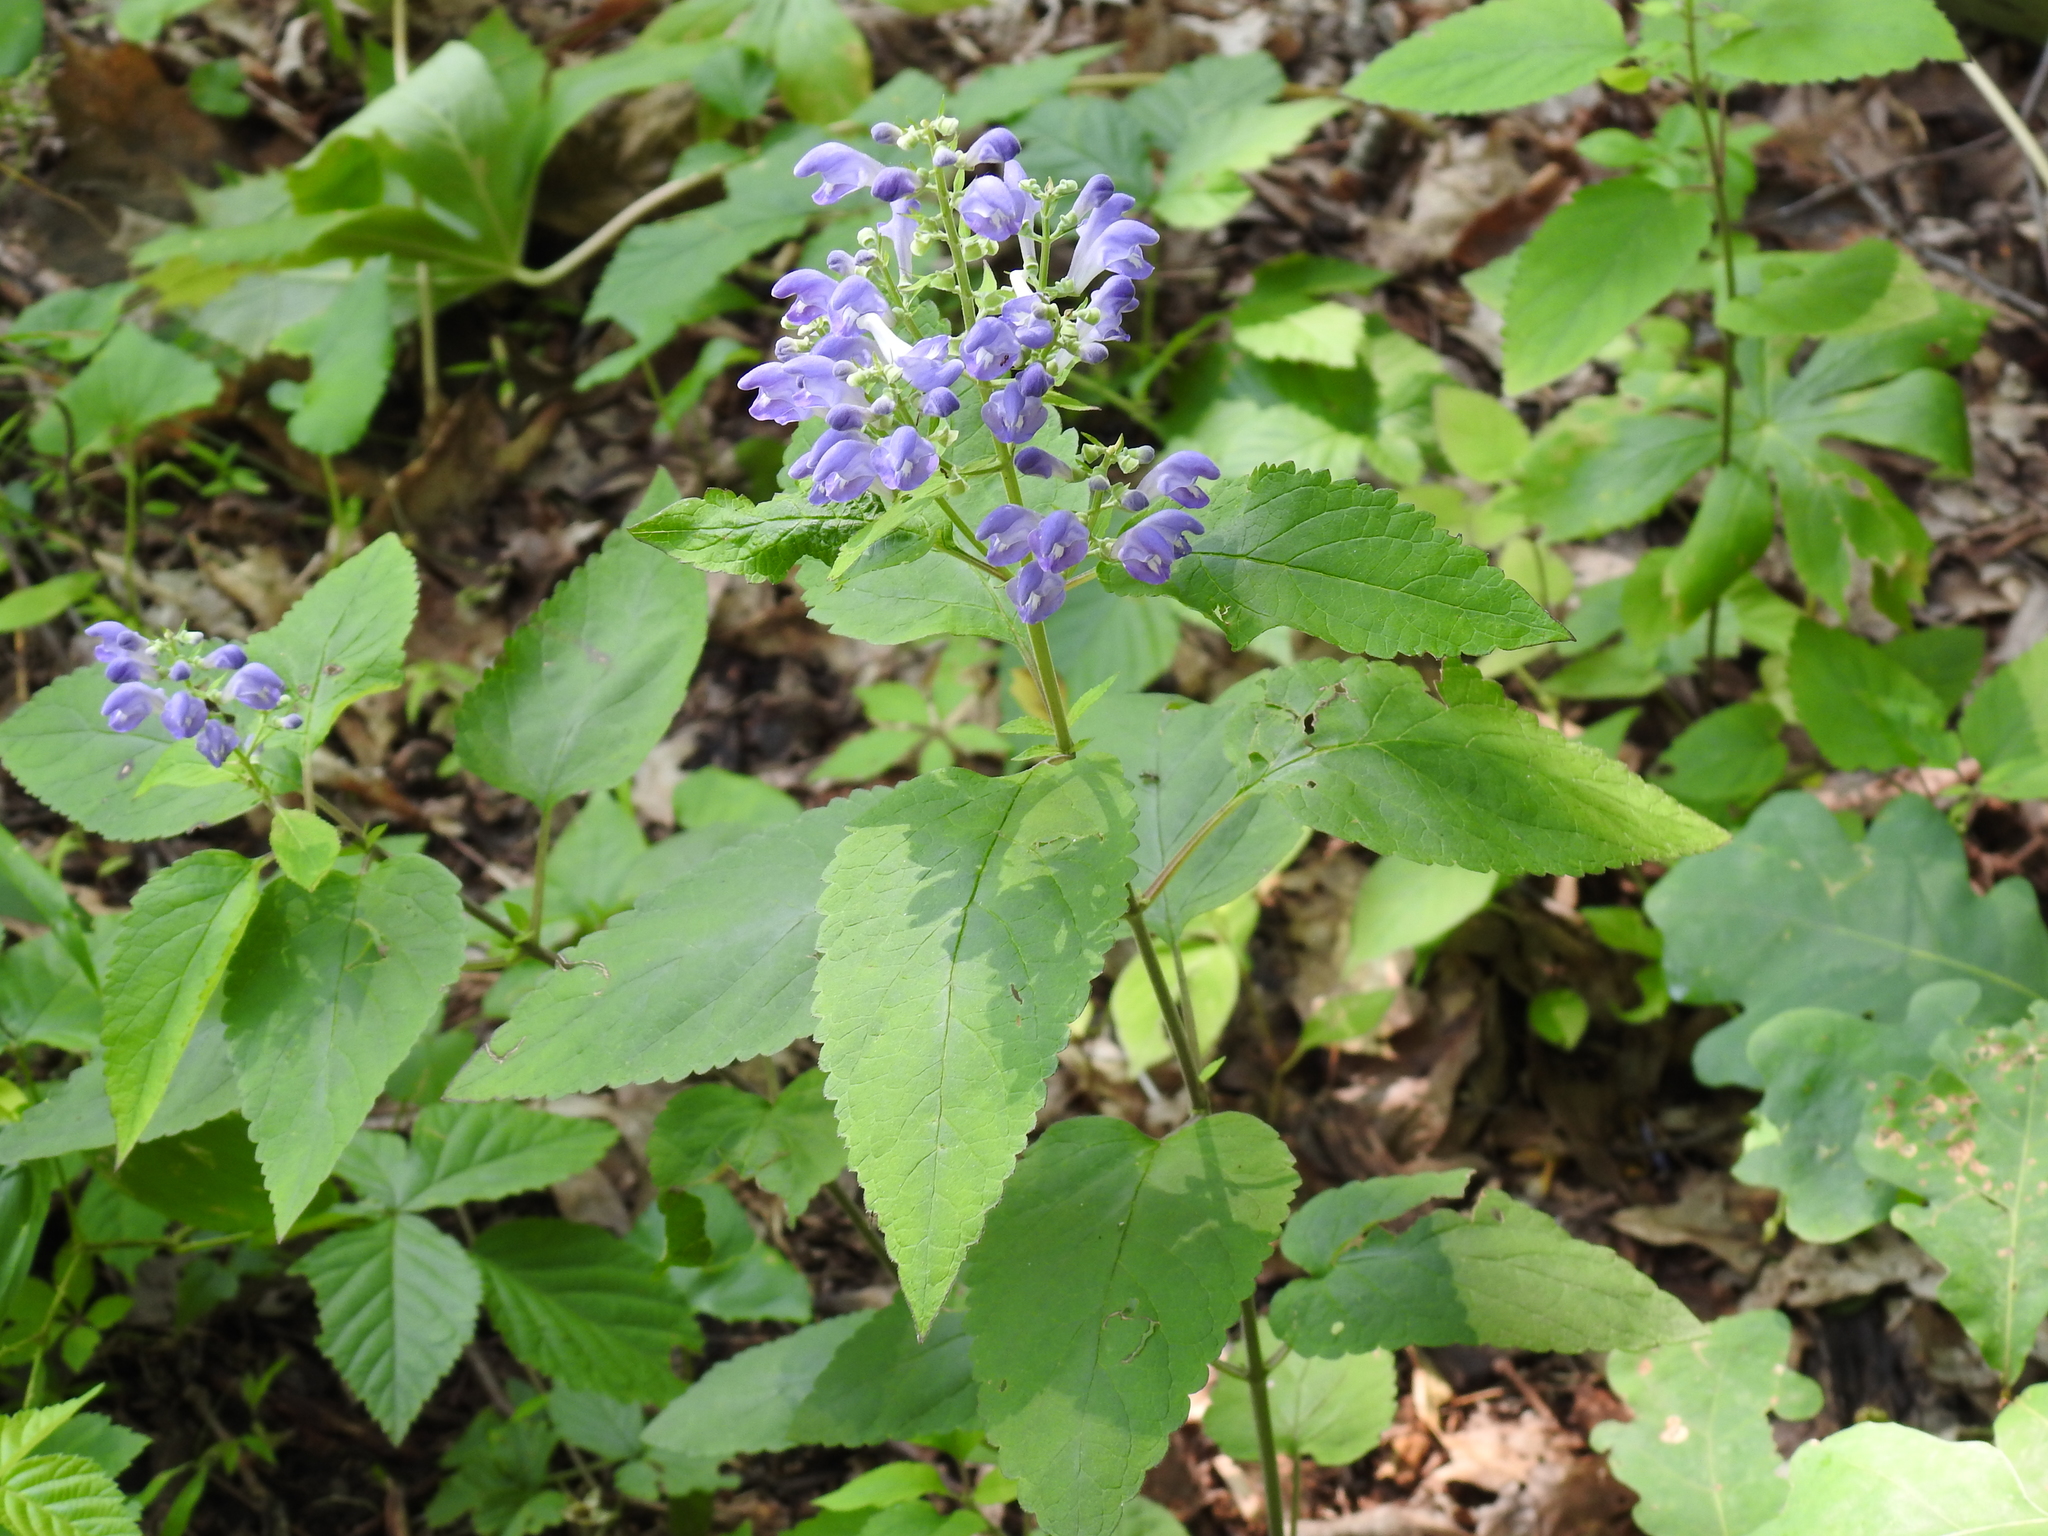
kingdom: Plantae
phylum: Tracheophyta
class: Magnoliopsida
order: Lamiales
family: Lamiaceae
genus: Scutellaria
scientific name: Scutellaria incana
